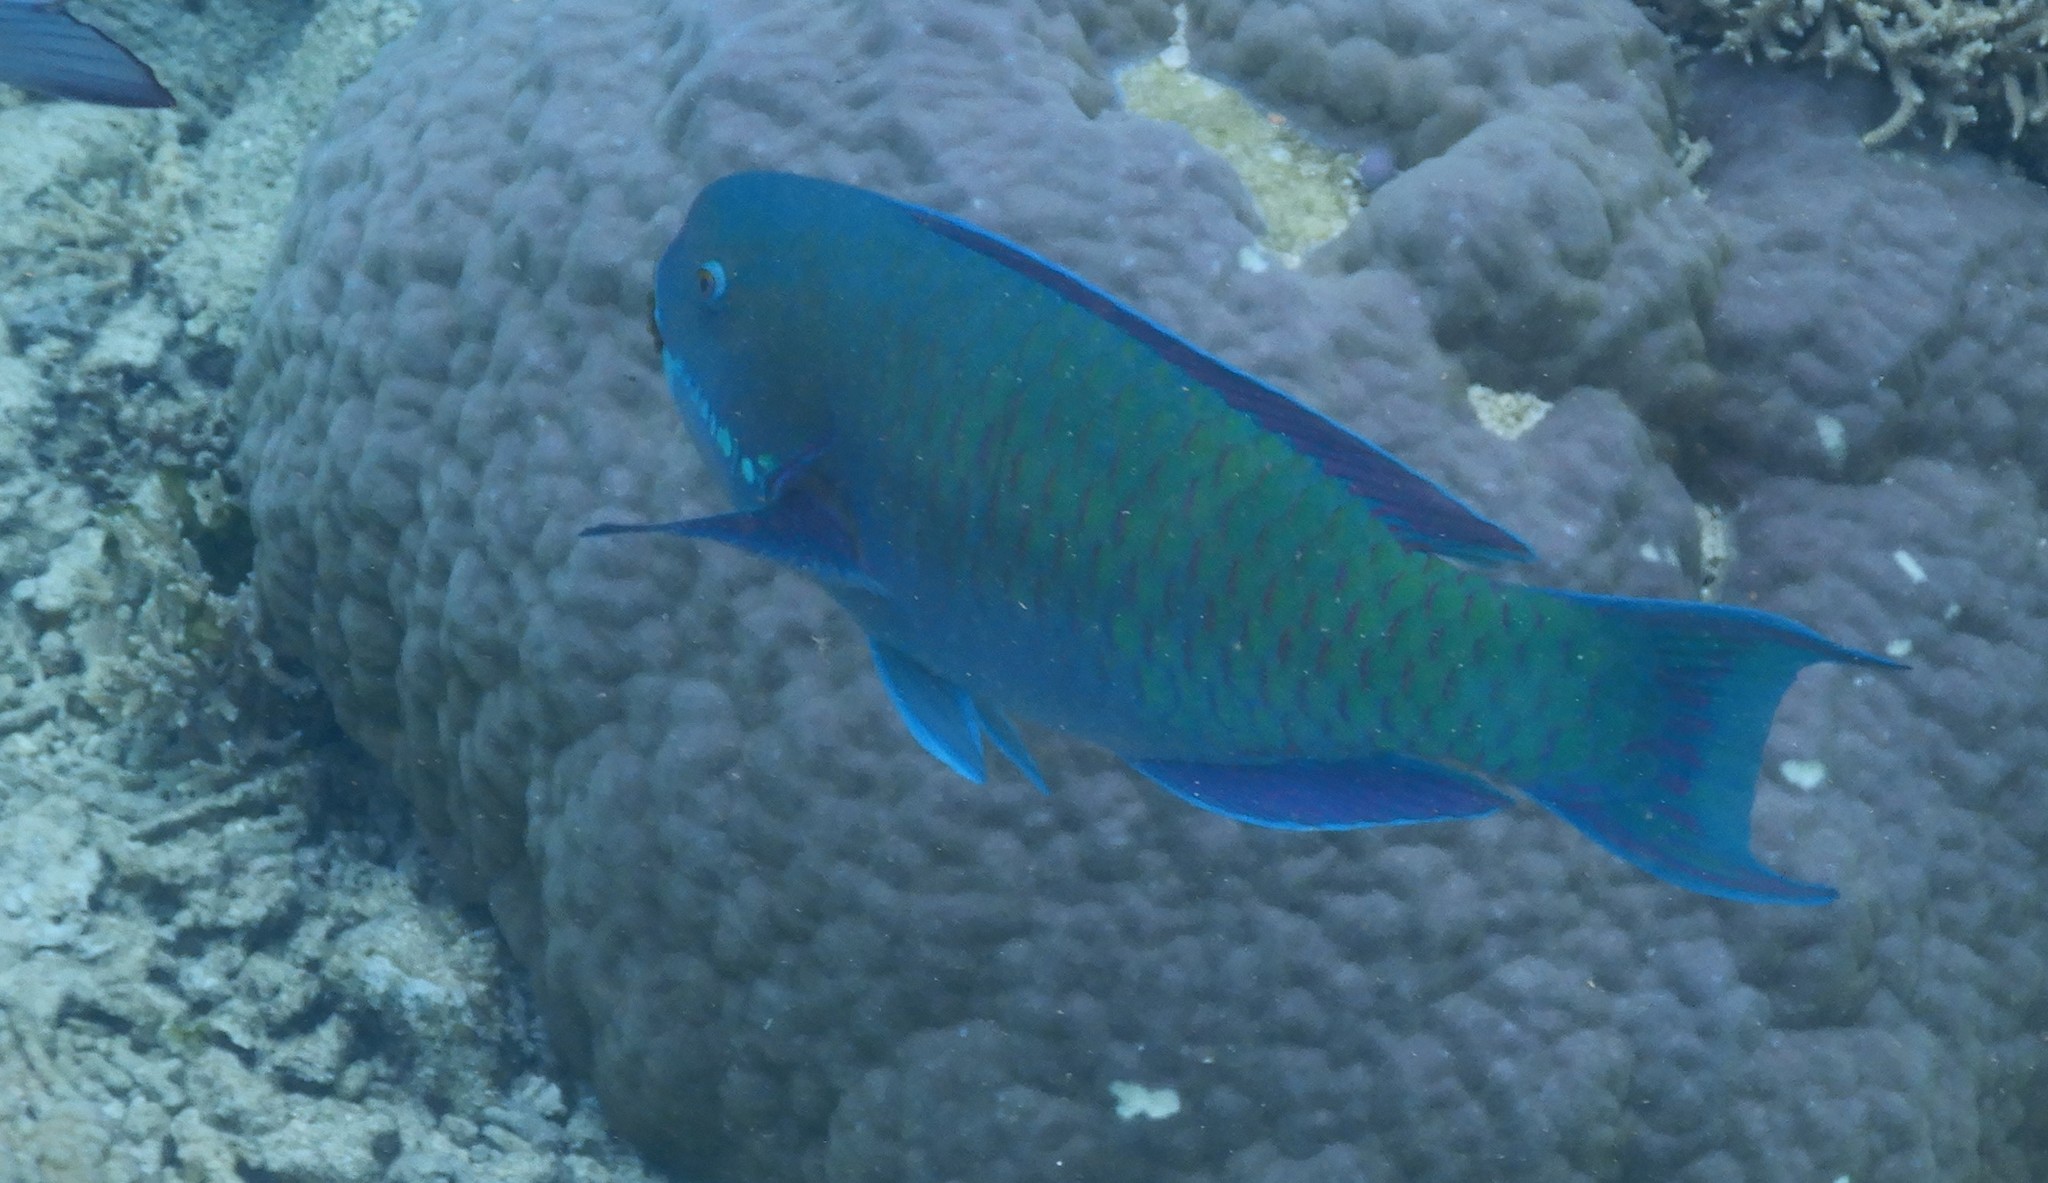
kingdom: Animalia
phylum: Chordata
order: Perciformes
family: Scaridae
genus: Chlorurus
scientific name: Chlorurus microrhinos
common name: Steephead parrotfish
